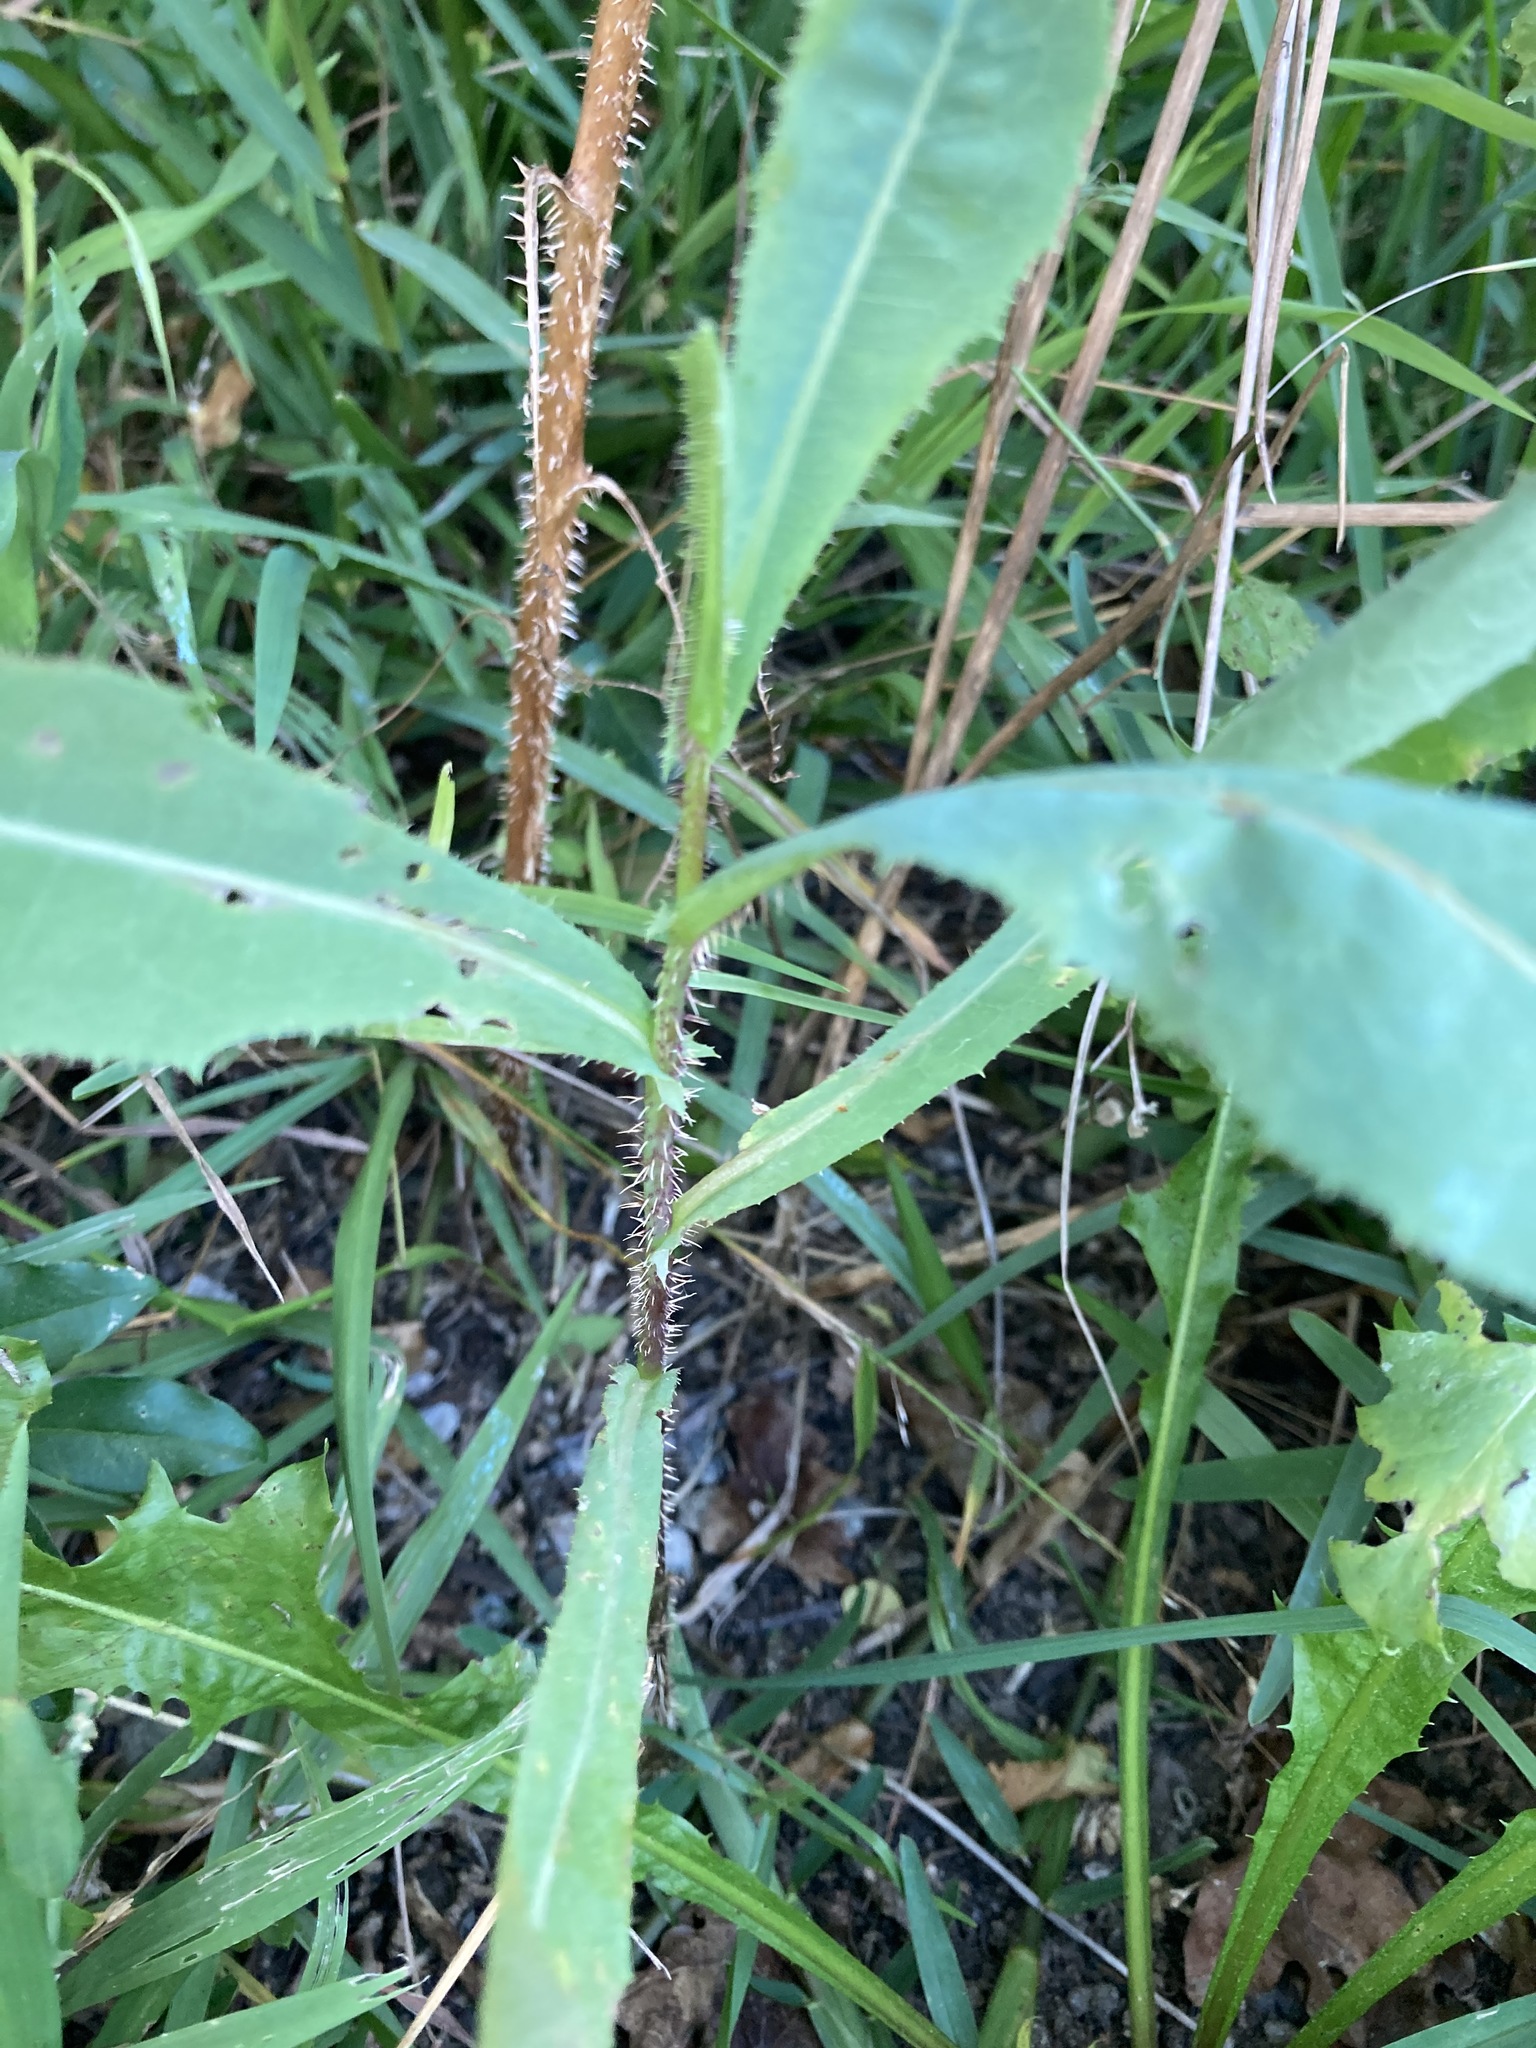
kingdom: Plantae
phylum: Tracheophyta
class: Magnoliopsida
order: Asterales
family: Asteraceae
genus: Lactuca
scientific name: Lactuca serriola
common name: Prickly lettuce
